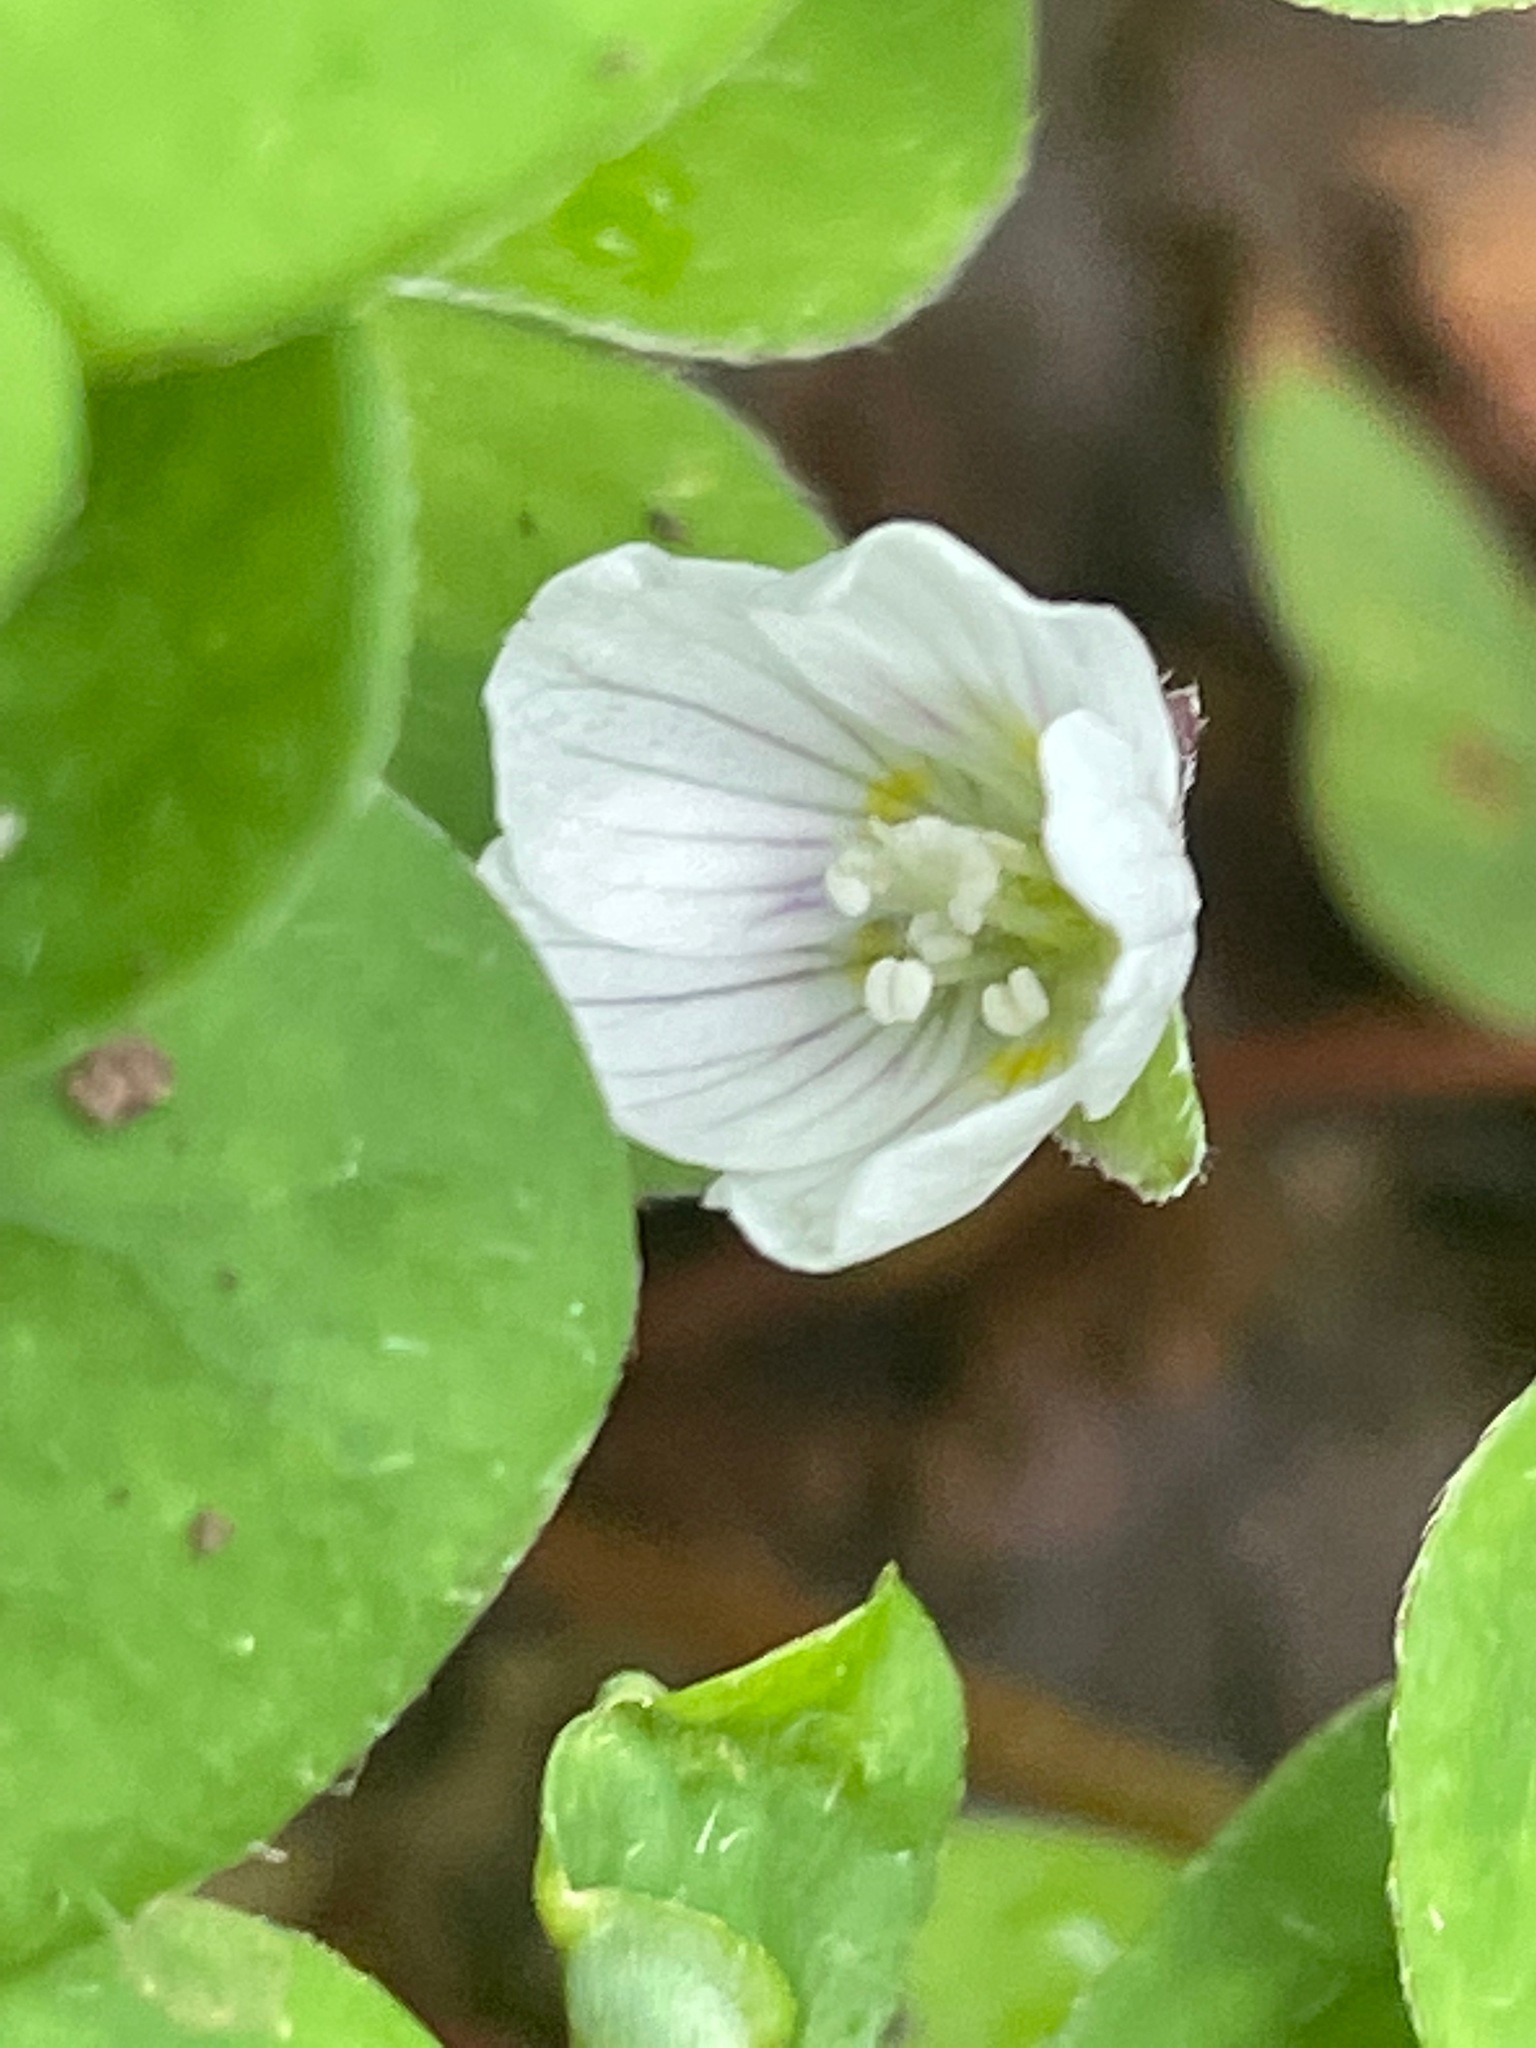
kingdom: Plantae
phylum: Tracheophyta
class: Magnoliopsida
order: Oxalidales
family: Oxalidaceae
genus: Oxalis
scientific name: Oxalis montana
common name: American wood-sorrel
